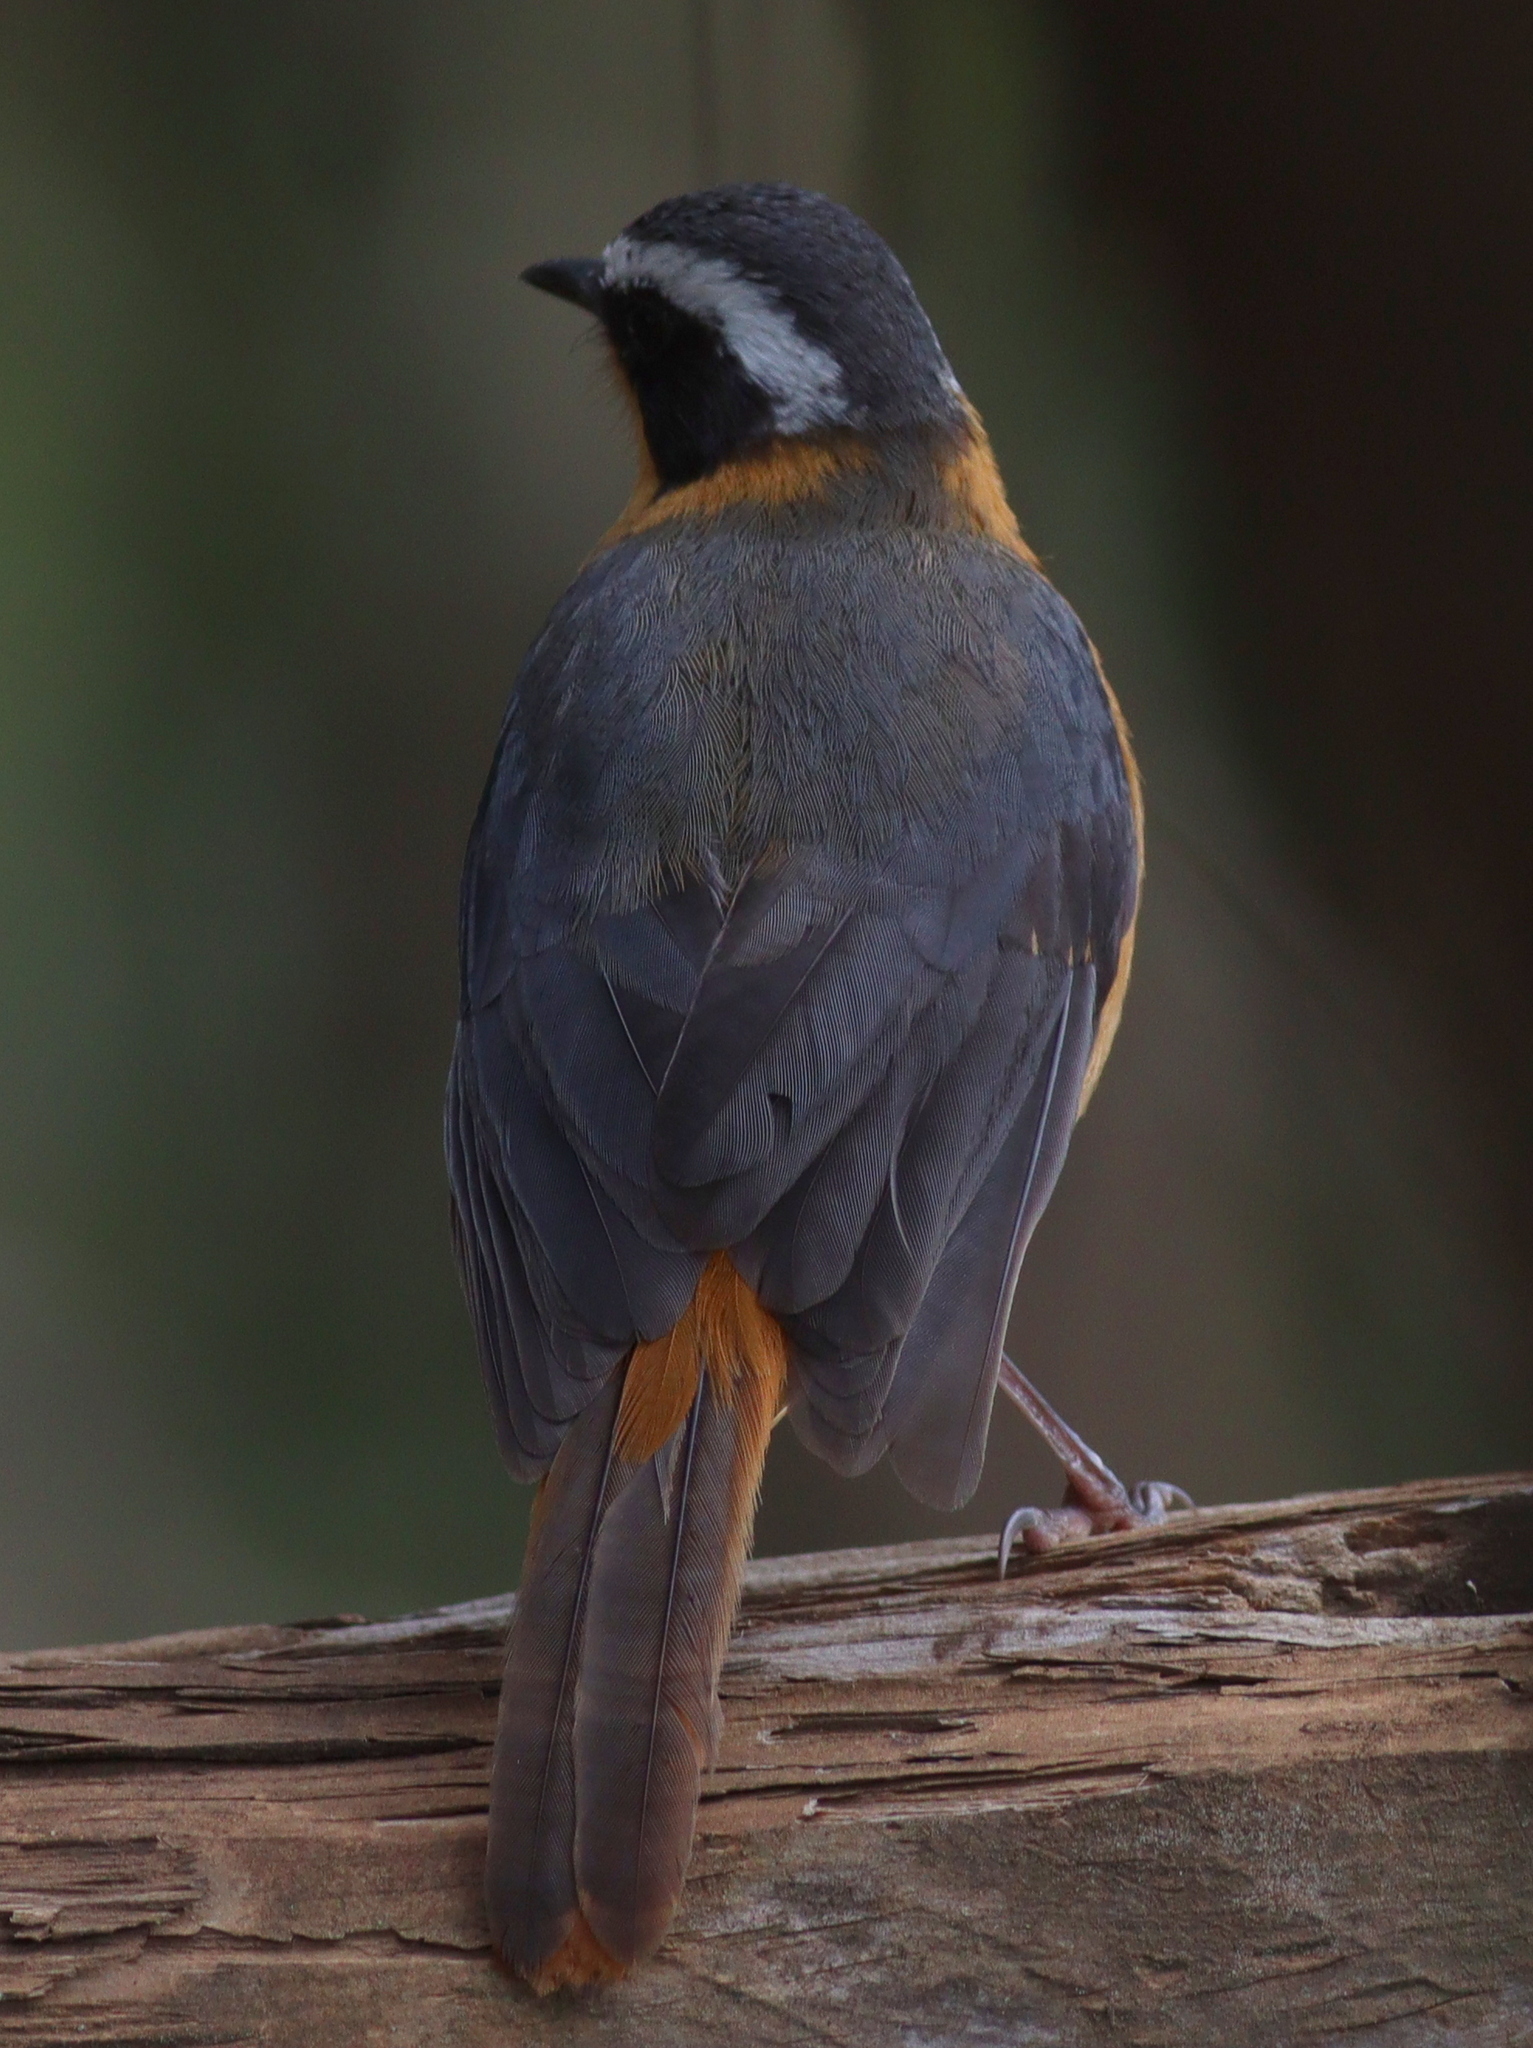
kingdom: Animalia
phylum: Chordata
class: Aves
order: Passeriformes
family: Muscicapidae
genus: Cossypha
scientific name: Cossypha heuglini
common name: White-browed robin-chat
